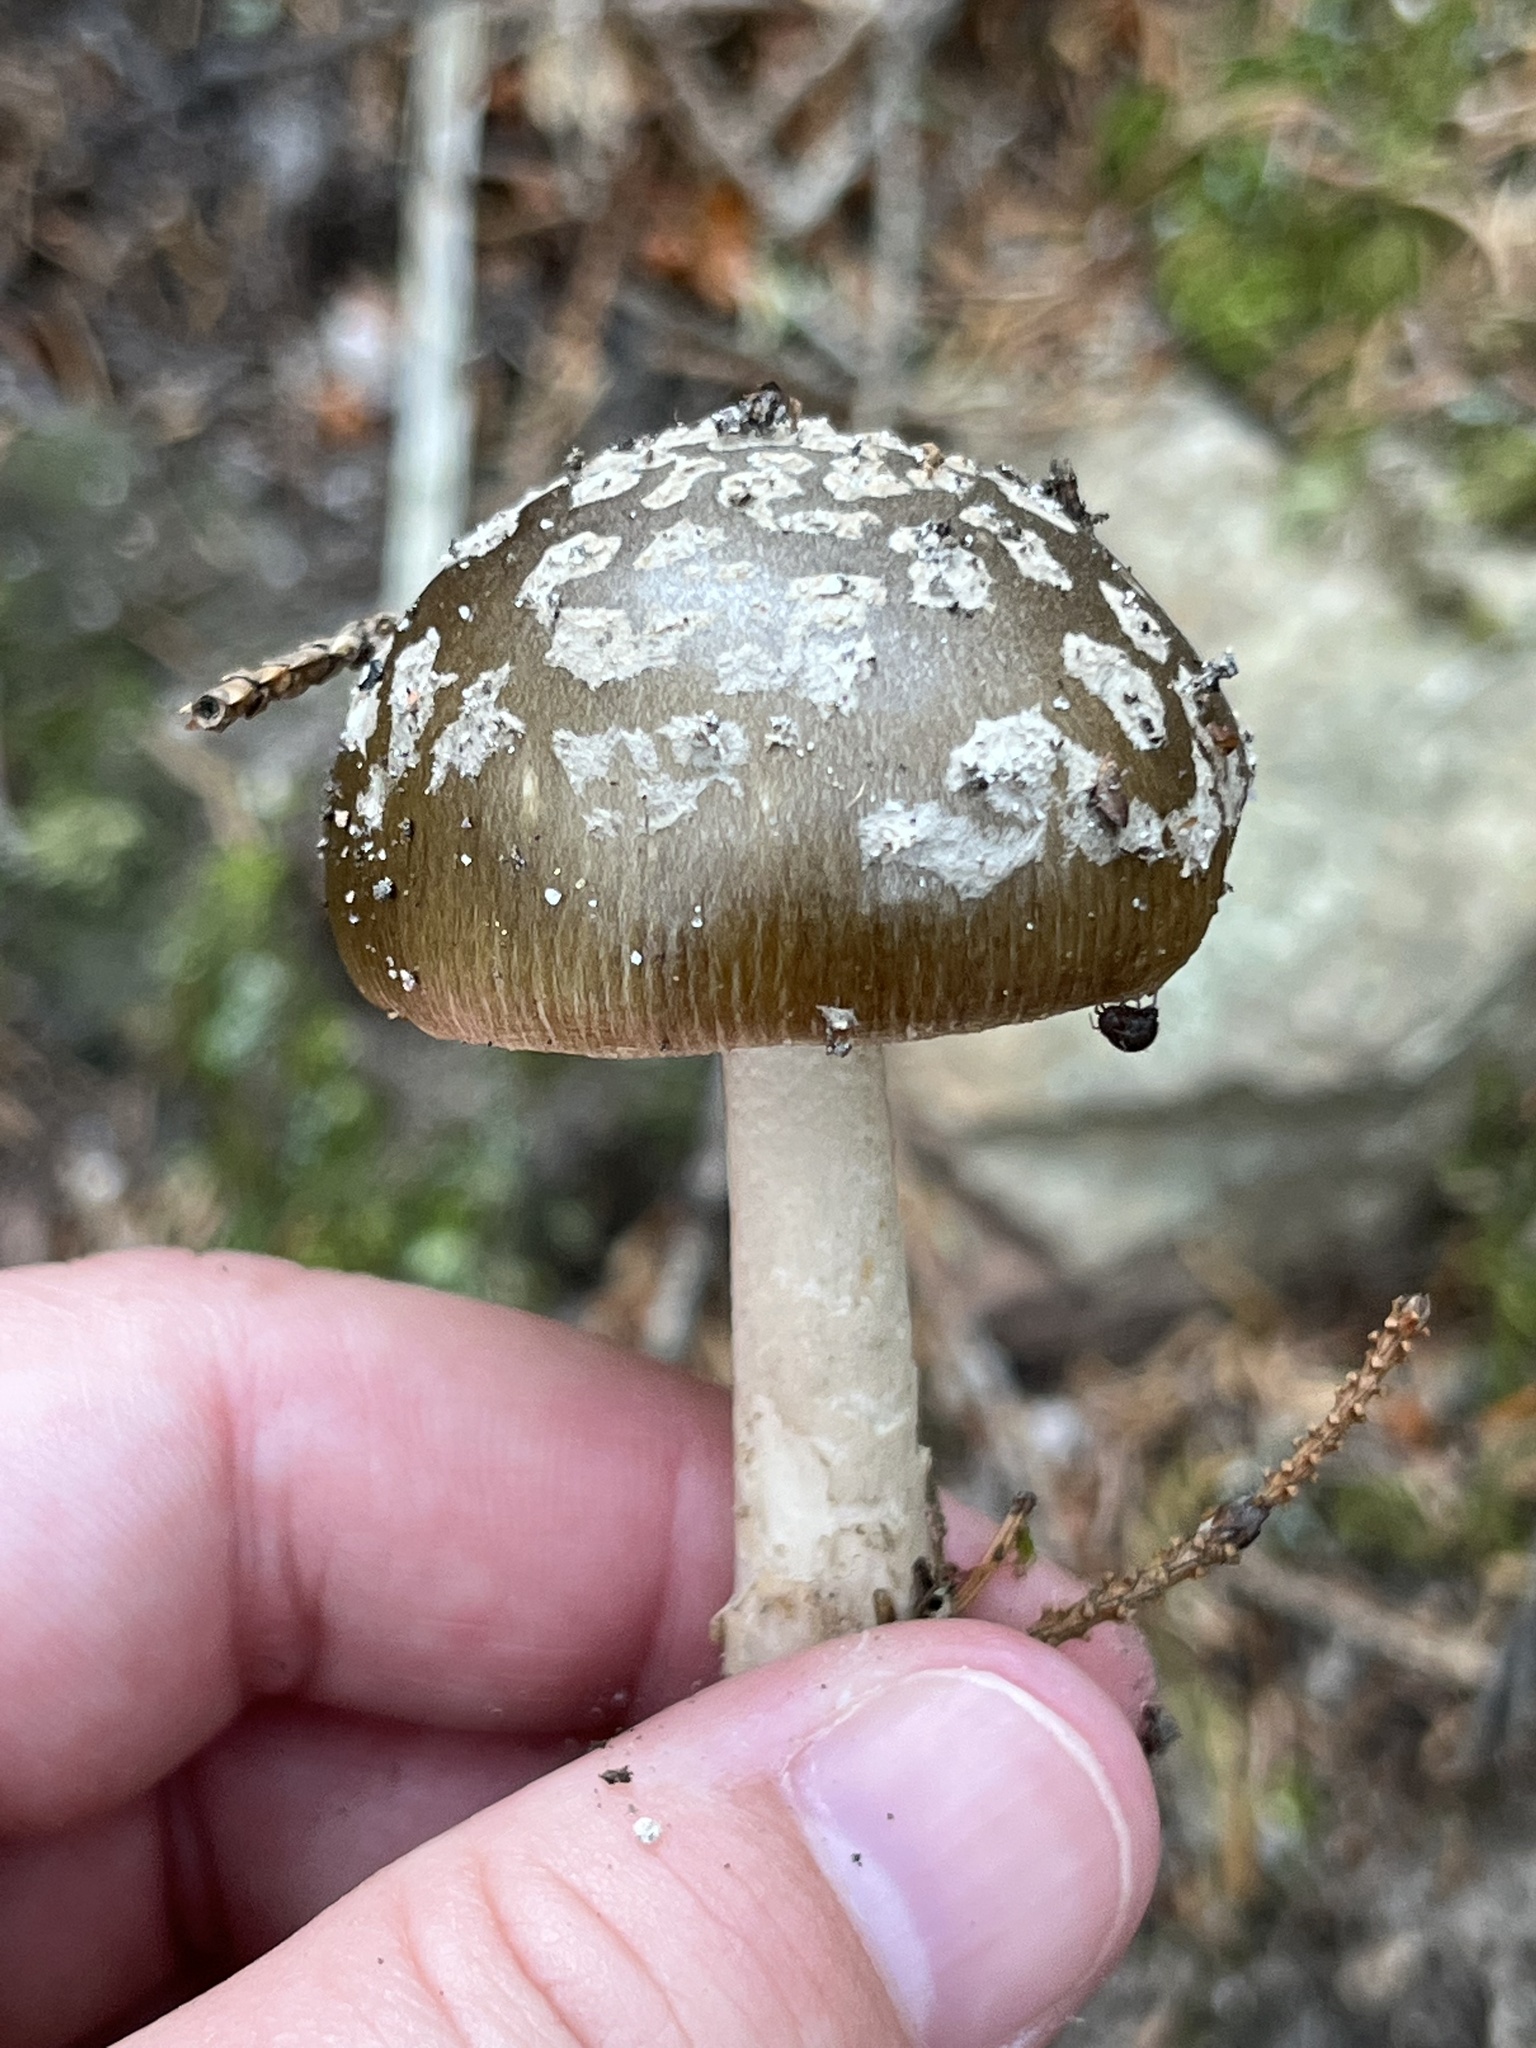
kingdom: Fungi
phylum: Basidiomycota
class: Agaricomycetes
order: Agaricales
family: Amanitaceae
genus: Amanita
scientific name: Amanita rhacopus
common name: Shaggy legged ringless amanita
